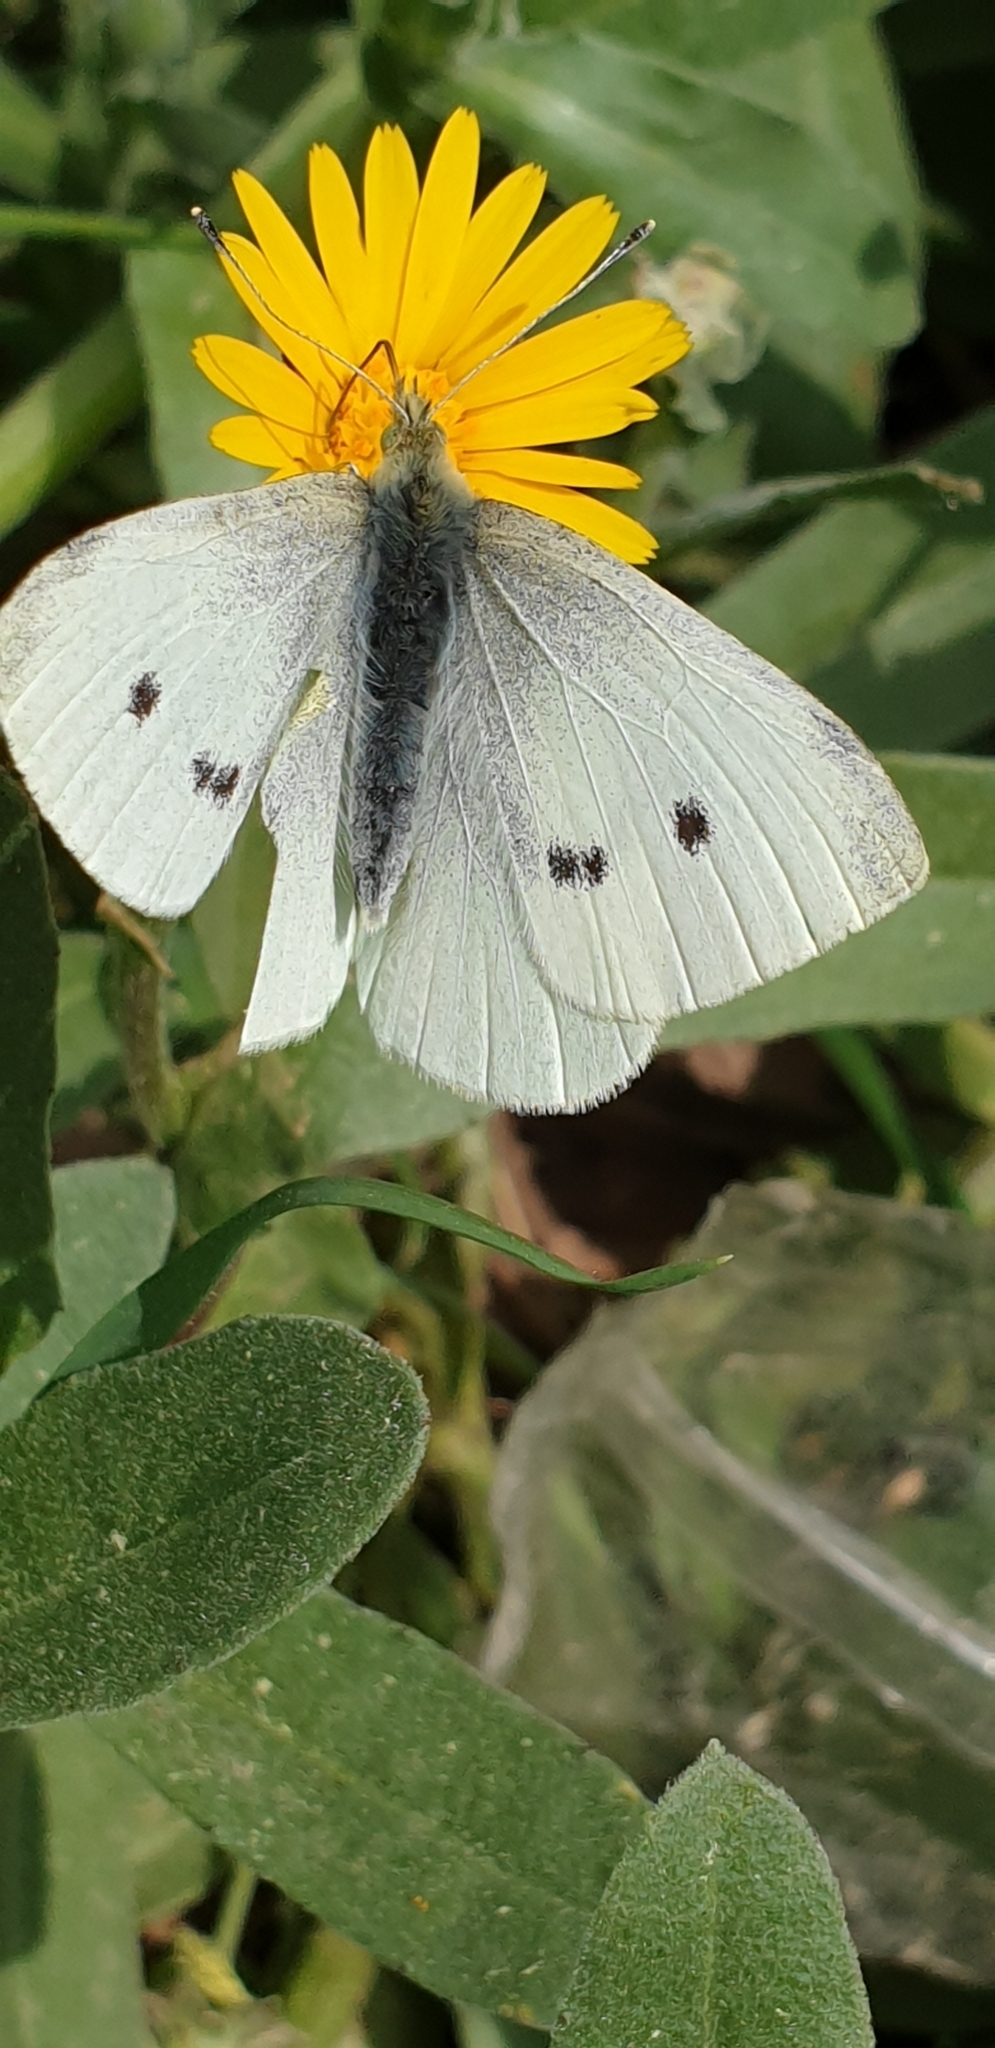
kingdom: Animalia
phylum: Arthropoda
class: Insecta
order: Lepidoptera
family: Pieridae
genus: Pieris
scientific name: Pieris rapae
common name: Small white
